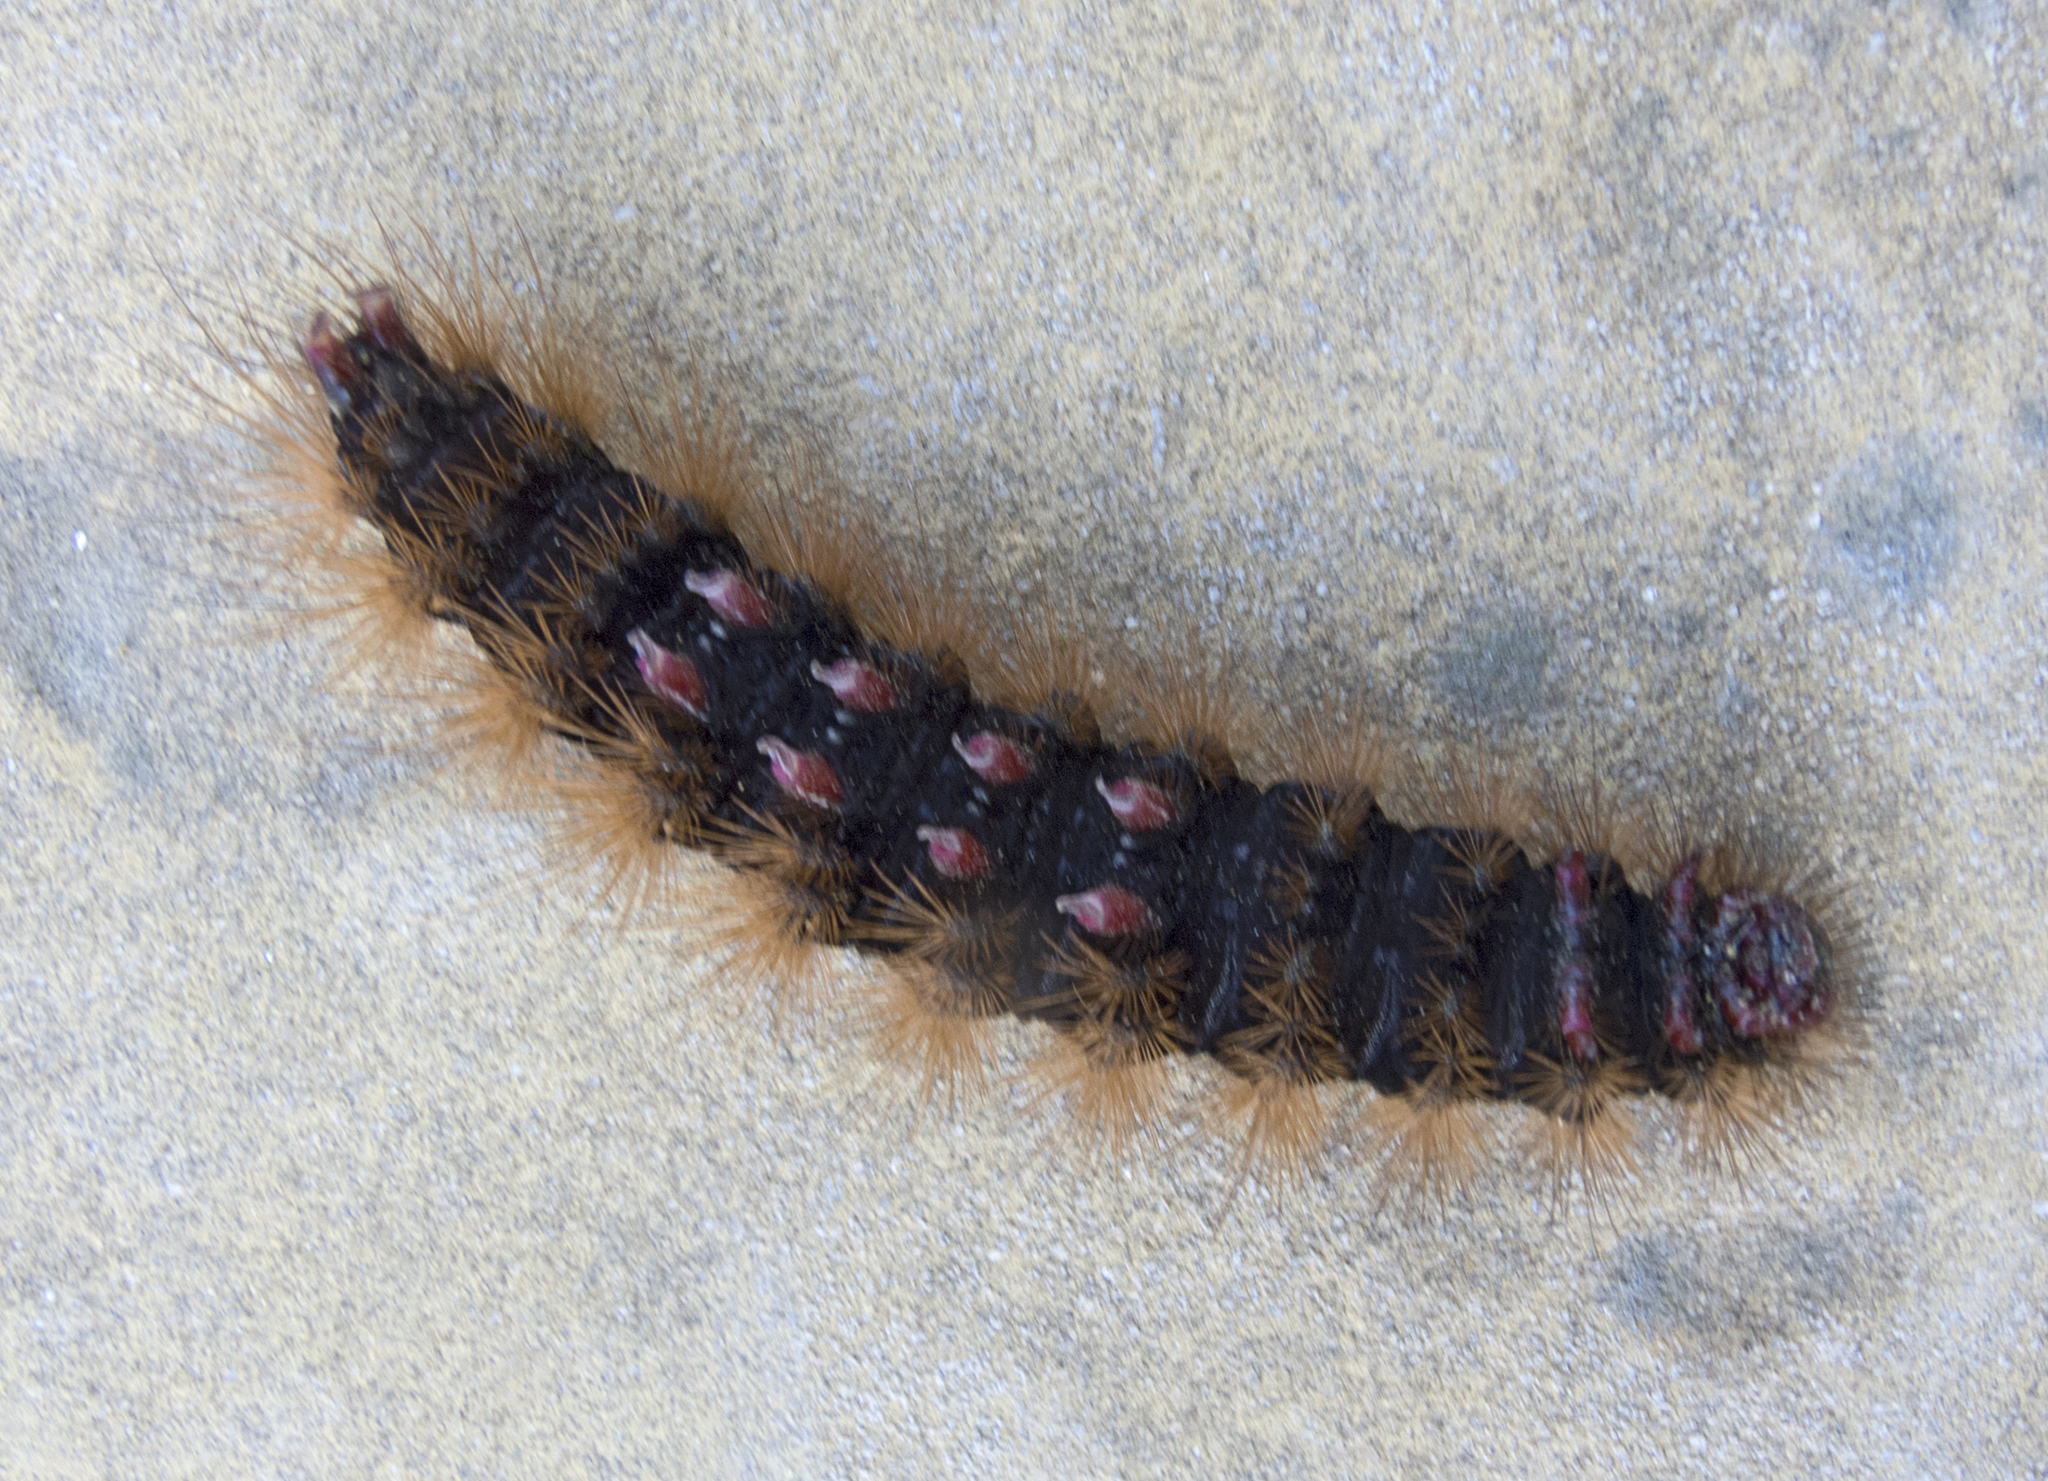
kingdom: Animalia
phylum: Arthropoda
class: Insecta
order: Lepidoptera
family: Erebidae
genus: Epicallia
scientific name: Epicallia villica
